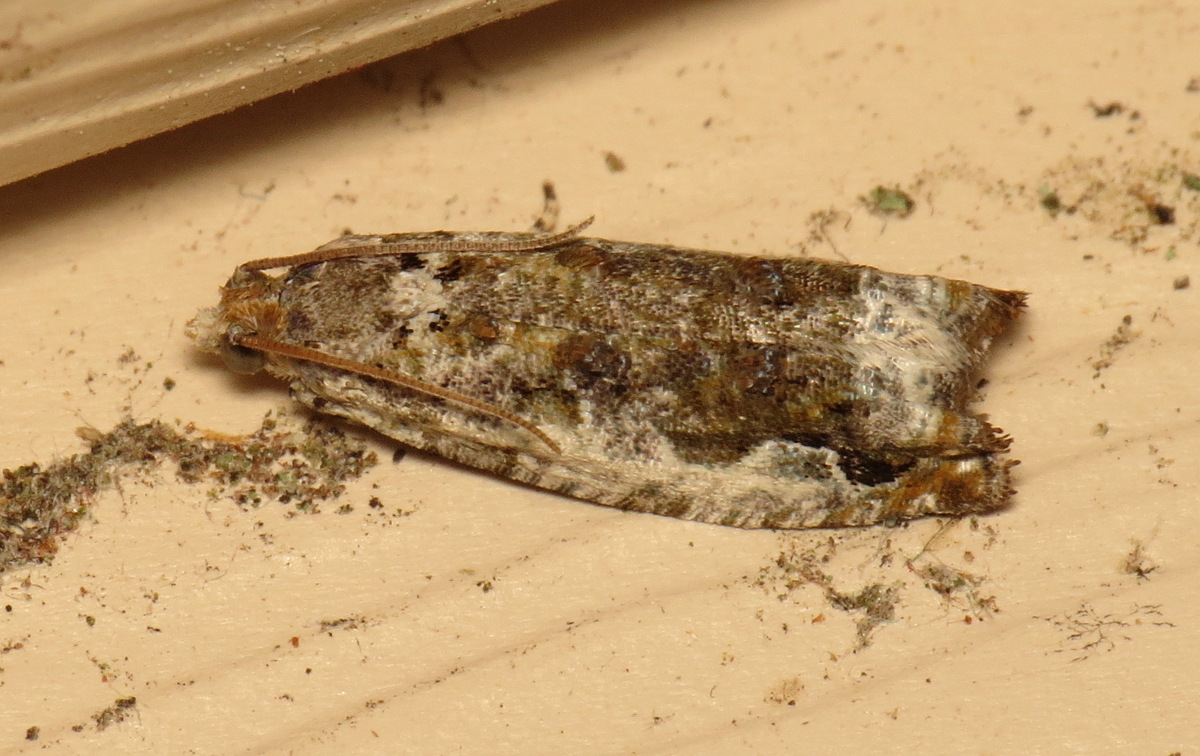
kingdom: Animalia
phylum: Arthropoda
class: Insecta
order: Lepidoptera
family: Tortricidae
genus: Proteoteras
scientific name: Proteoteras naracana
